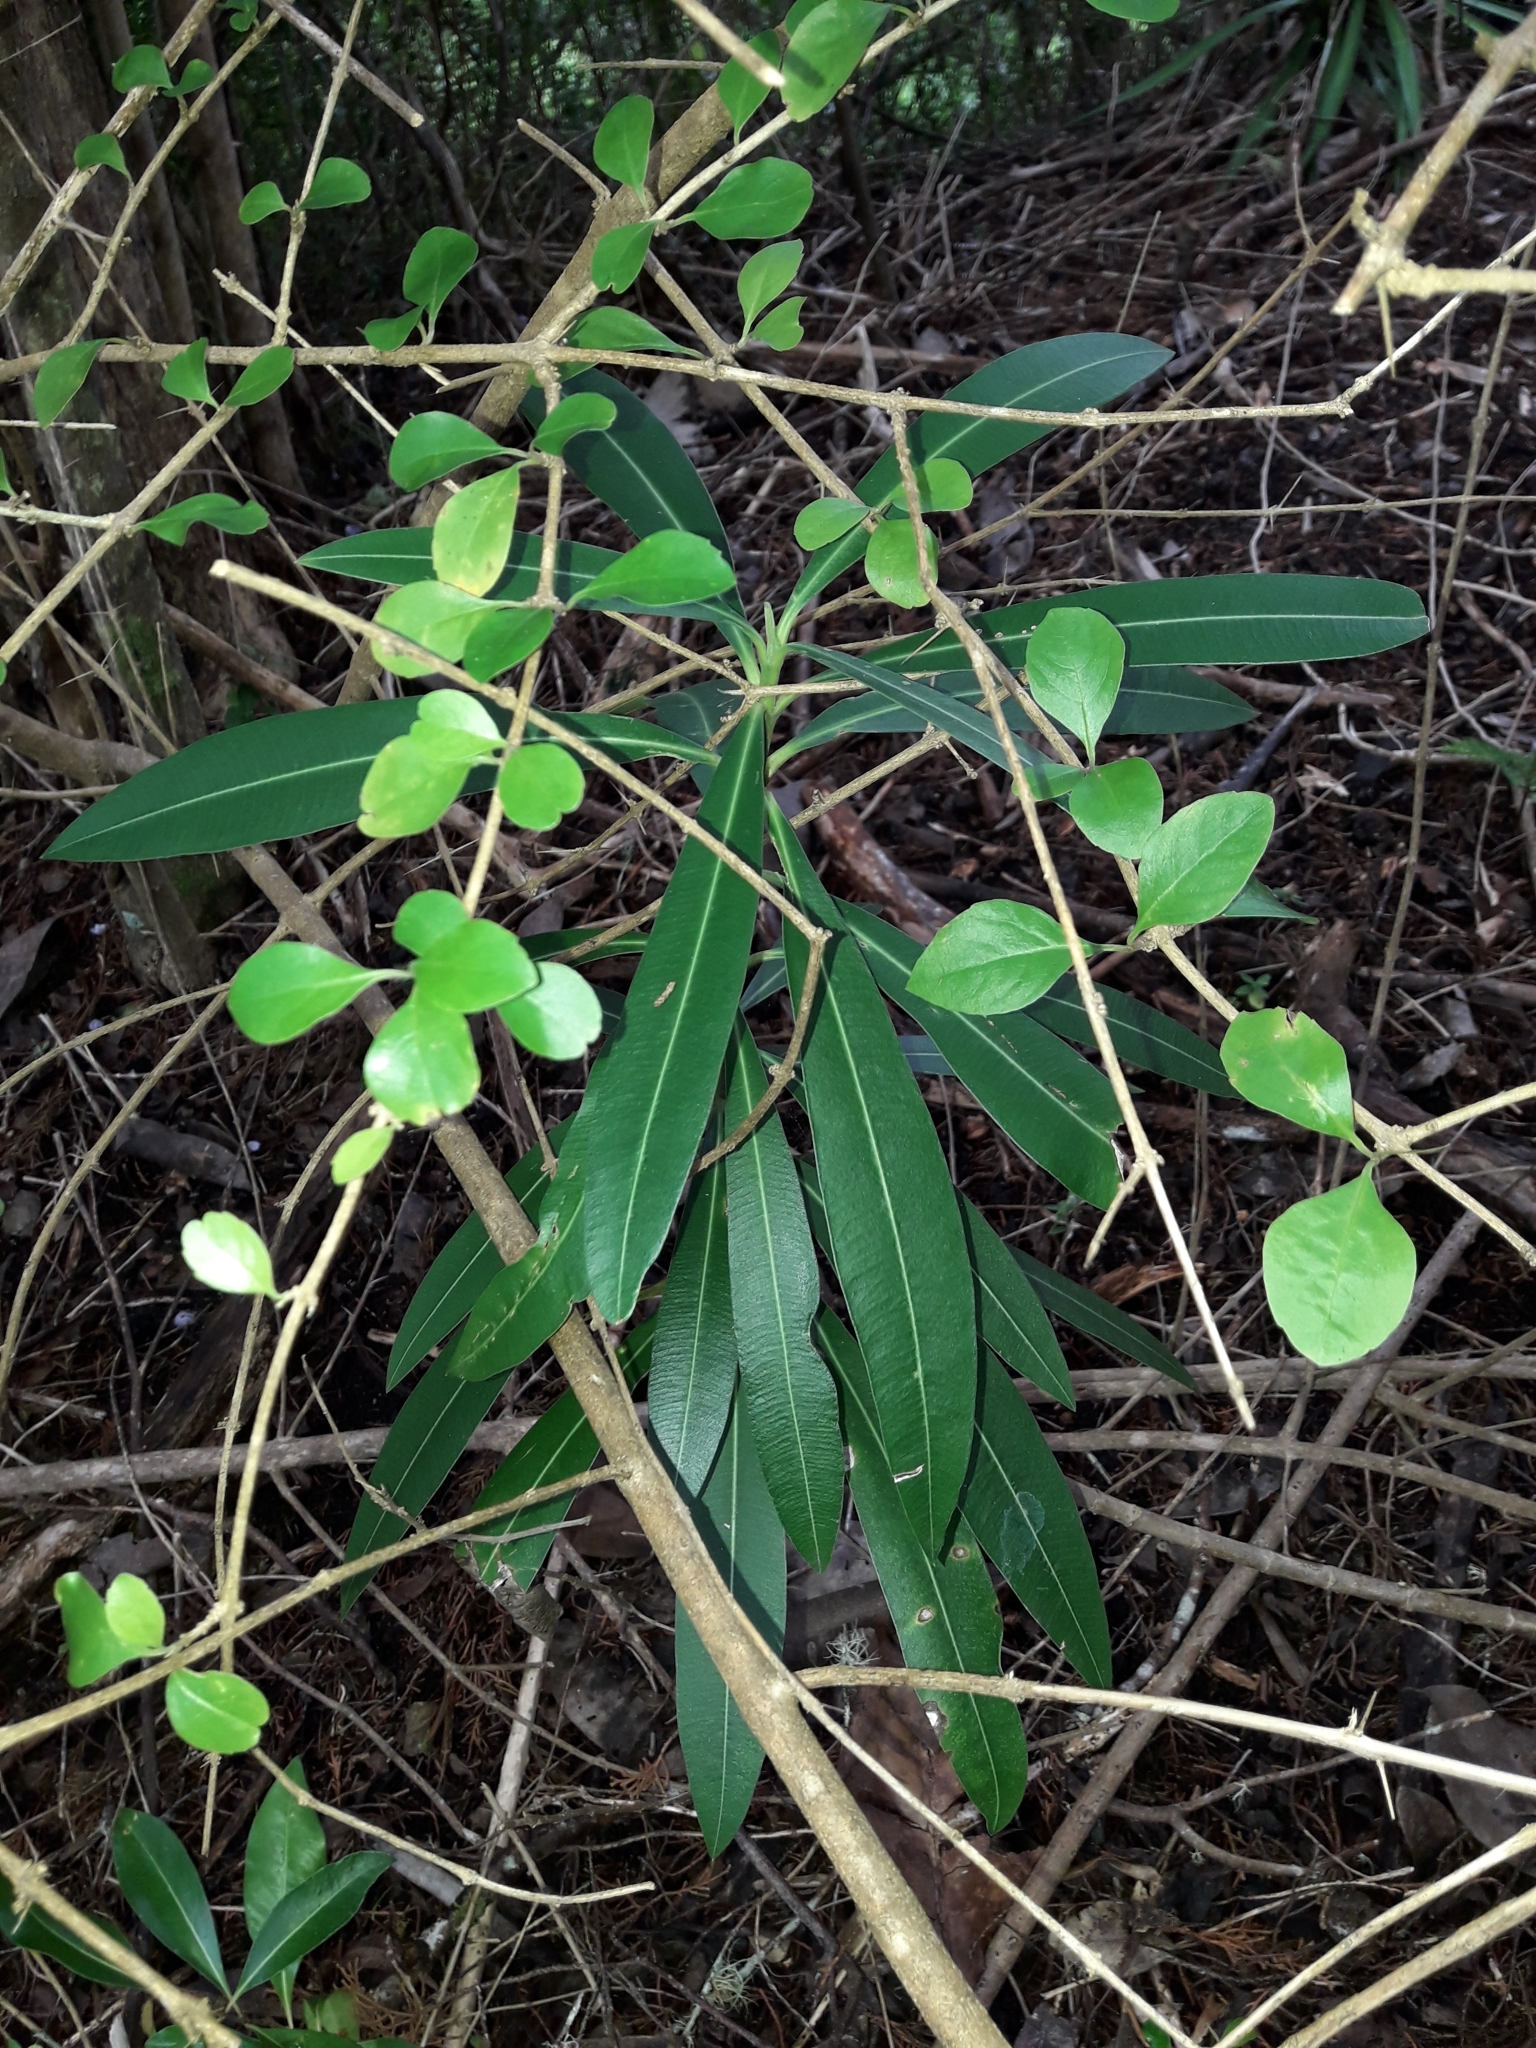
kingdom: Plantae
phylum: Tracheophyta
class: Magnoliopsida
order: Gentianales
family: Apocynaceae
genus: Nerium
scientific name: Nerium oleander
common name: Oleander
